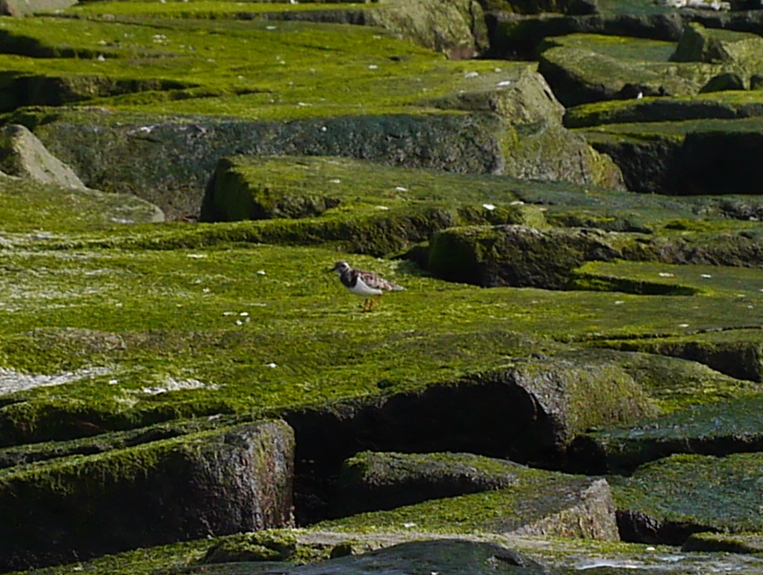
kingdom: Animalia
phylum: Chordata
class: Aves
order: Charadriiformes
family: Scolopacidae
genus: Arenaria
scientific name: Arenaria interpres
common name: Ruddy turnstone
